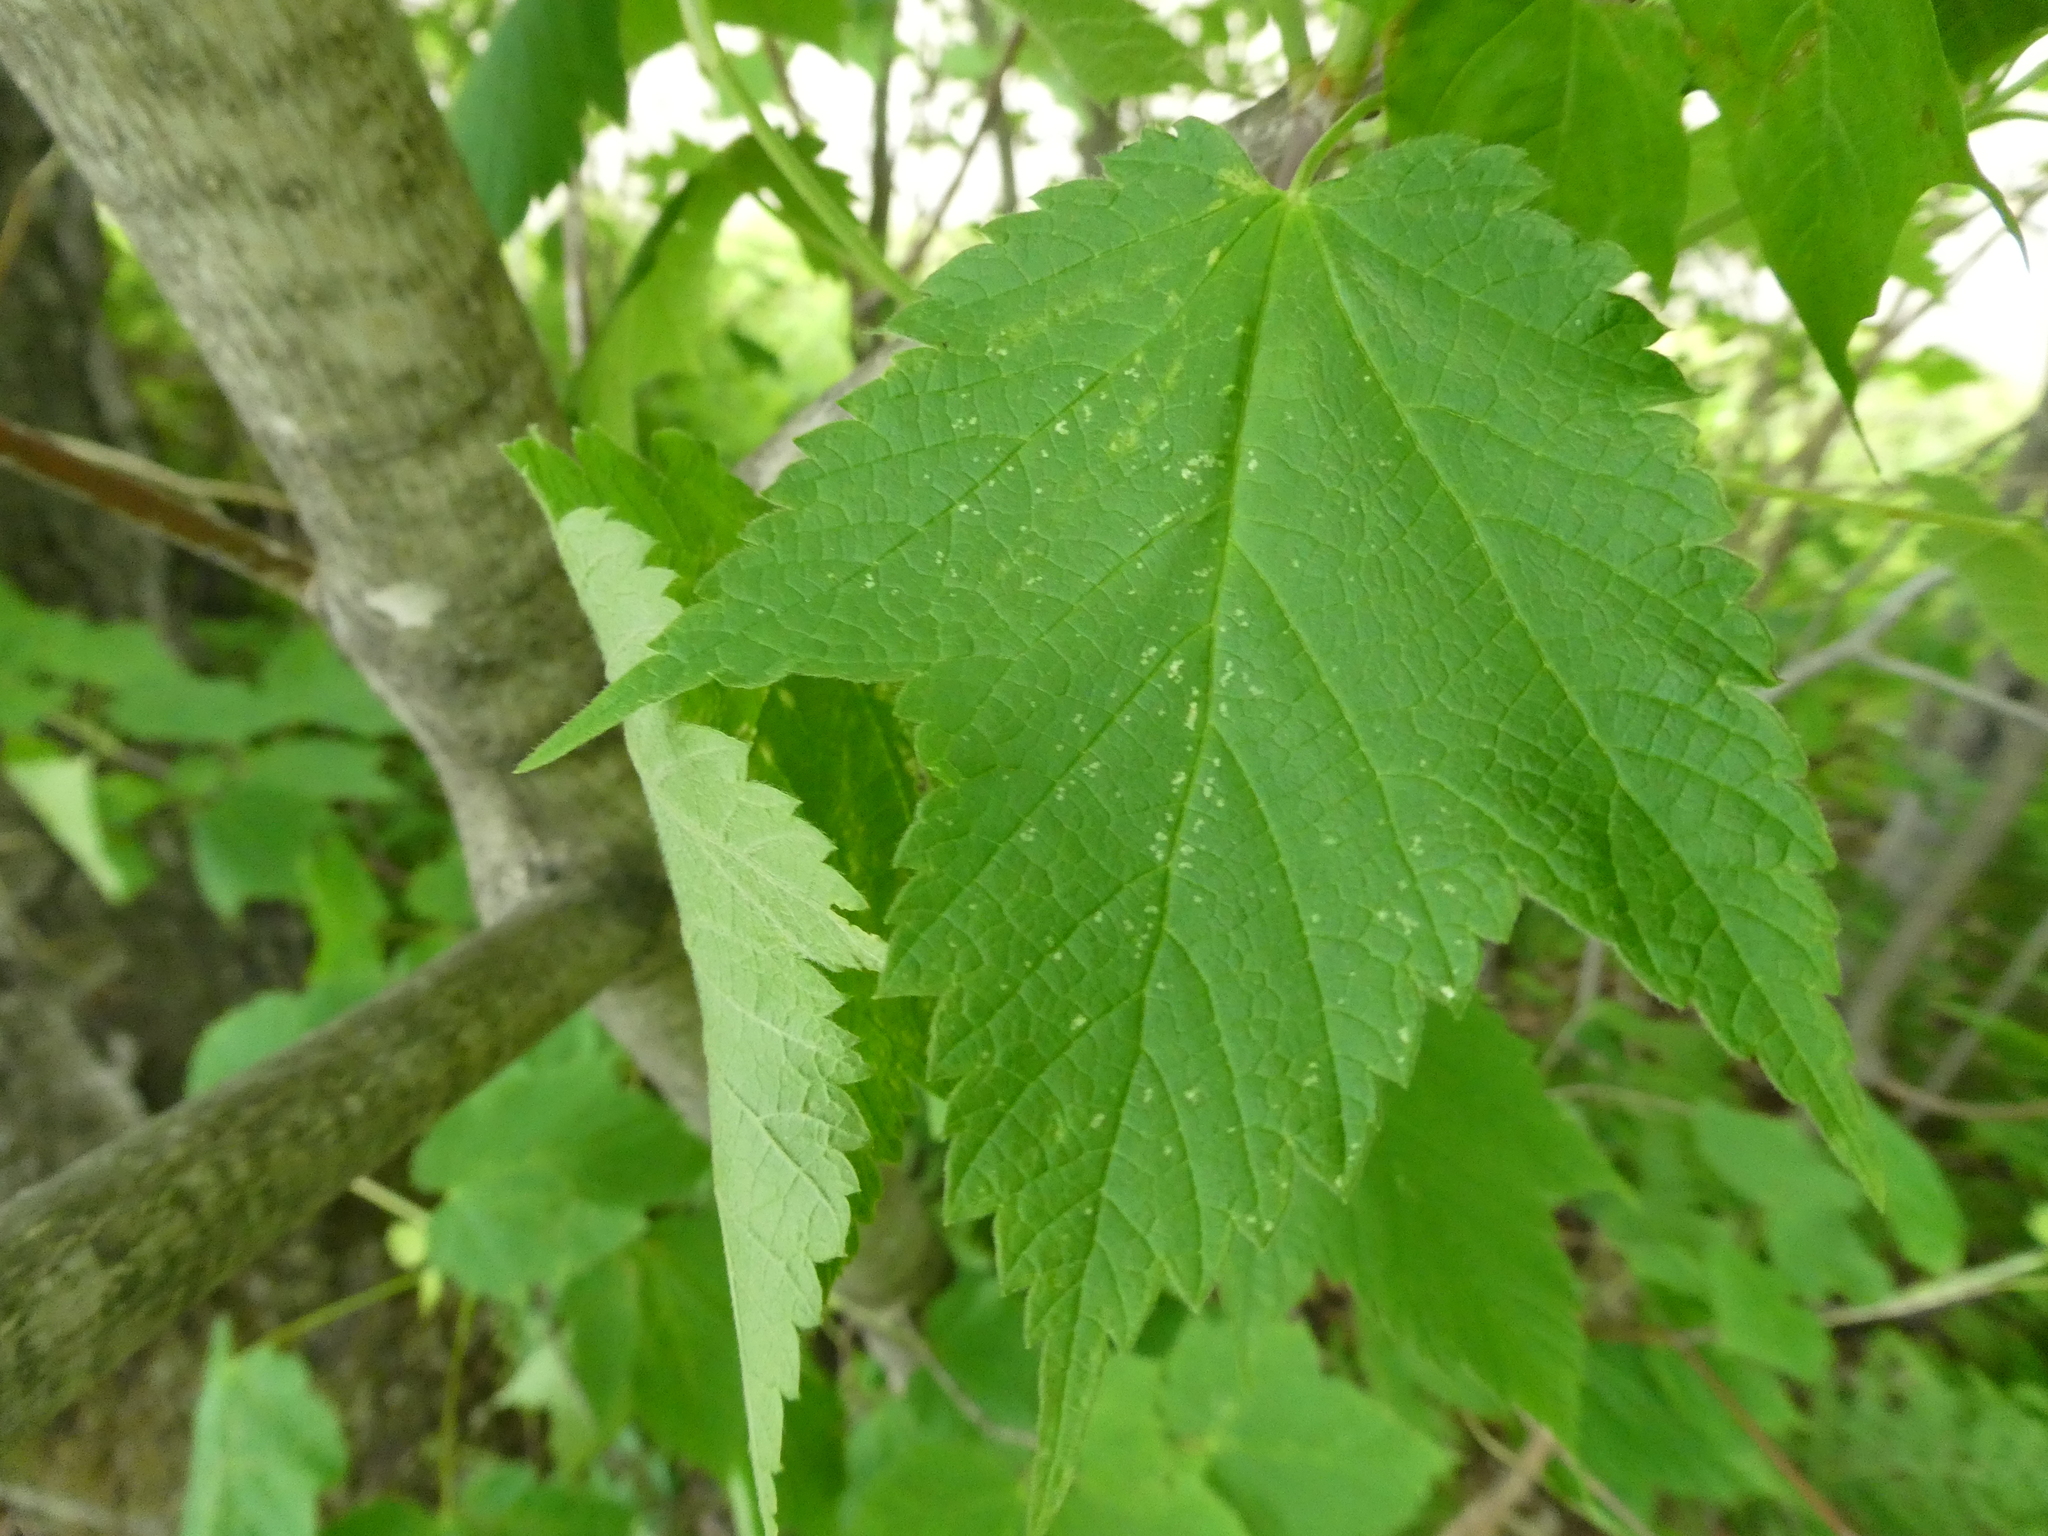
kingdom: Plantae
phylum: Tracheophyta
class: Magnoliopsida
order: Sapindales
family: Sapindaceae
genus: Acer
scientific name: Acer spicatum
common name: Mountain maple
